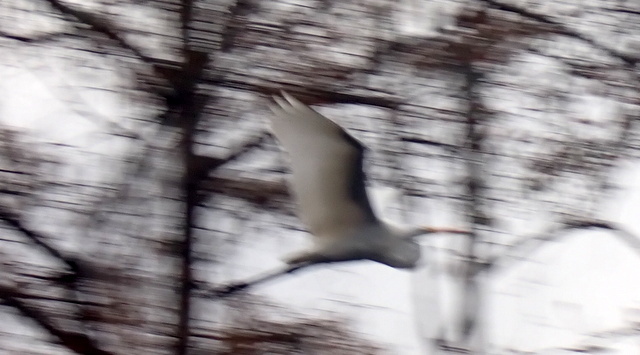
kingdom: Animalia
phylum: Chordata
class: Aves
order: Pelecaniformes
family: Ardeidae
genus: Ardea
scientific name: Ardea alba
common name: Great egret
